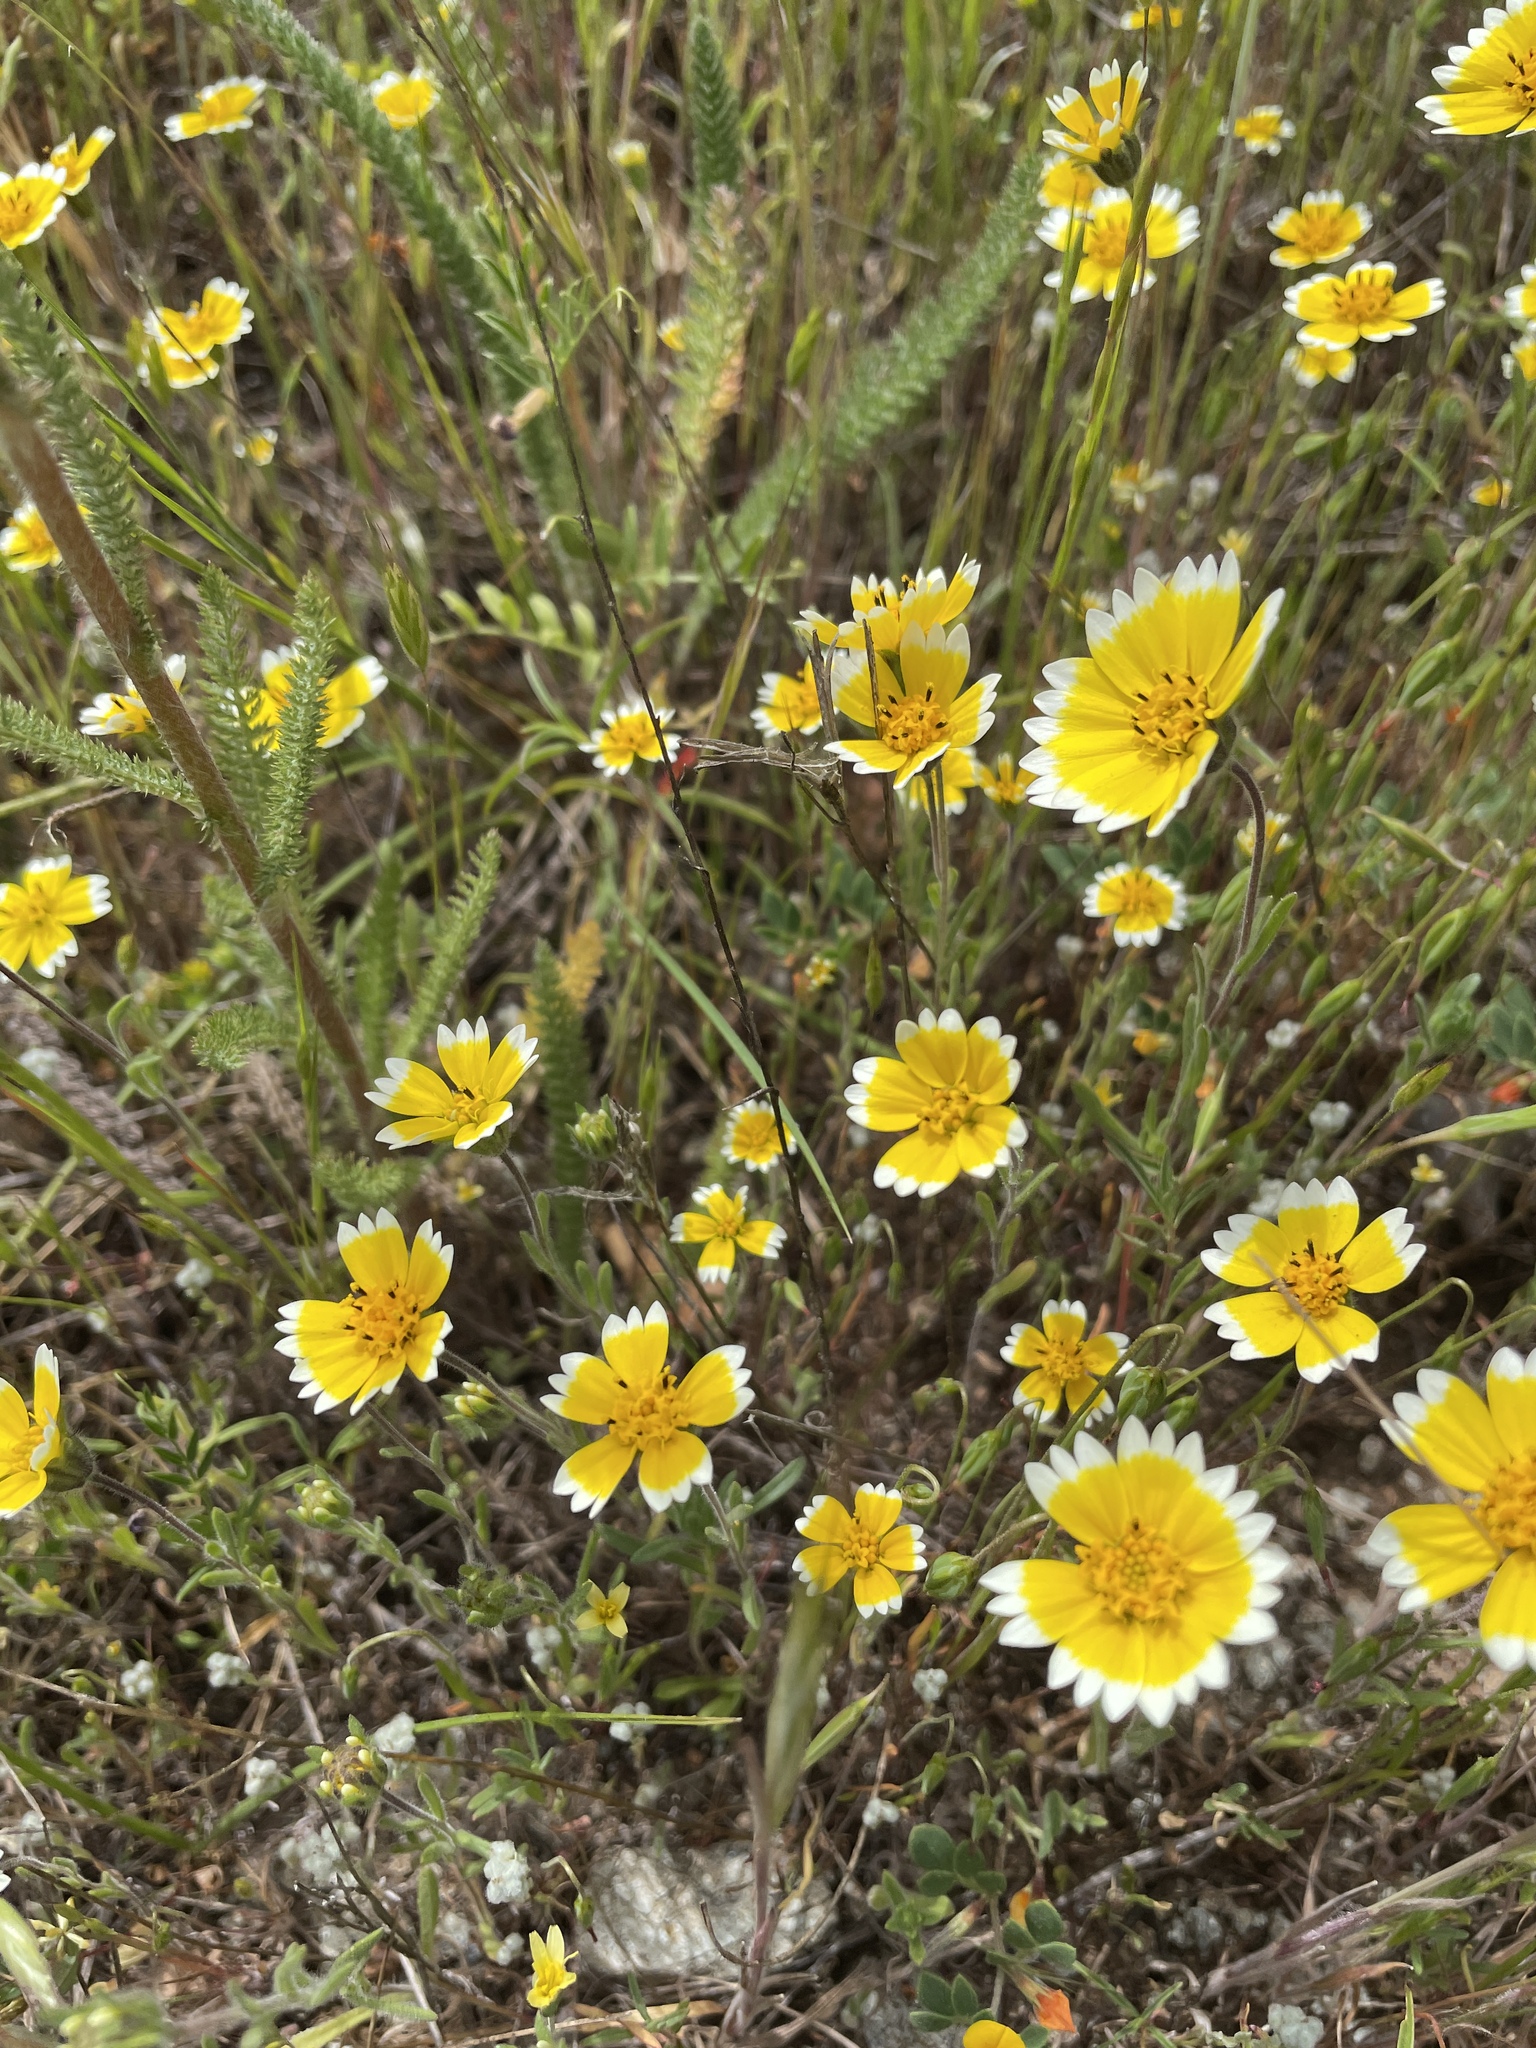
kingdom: Plantae
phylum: Tracheophyta
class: Magnoliopsida
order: Asterales
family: Asteraceae
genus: Layia
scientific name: Layia platyglossa
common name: Tidy-tips
